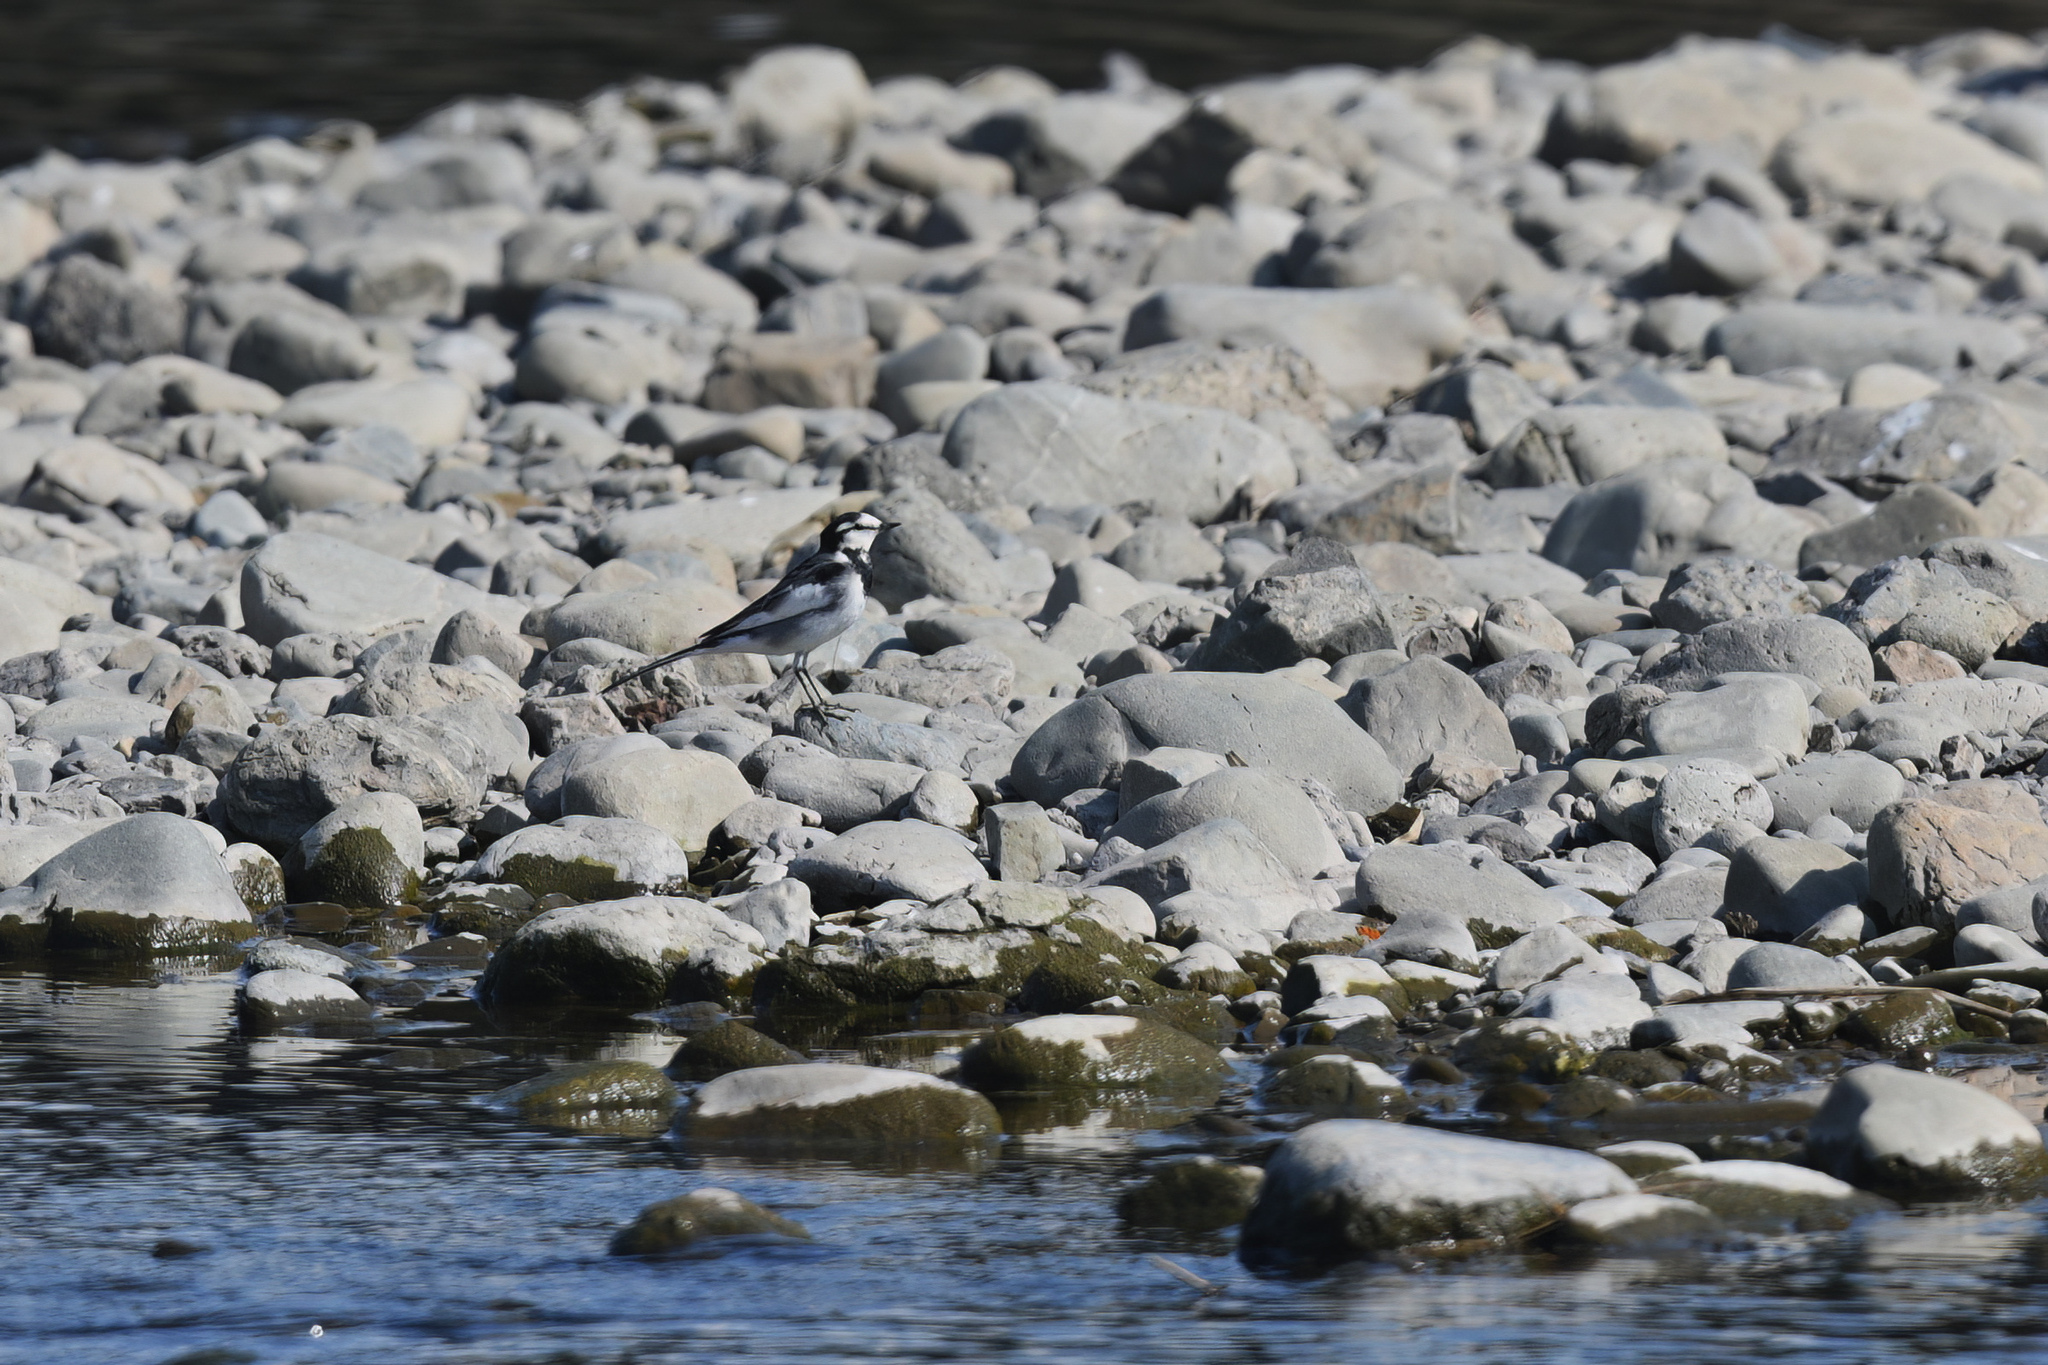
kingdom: Animalia
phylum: Chordata
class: Aves
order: Passeriformes
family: Motacillidae
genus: Motacilla
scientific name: Motacilla alba
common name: White wagtail
